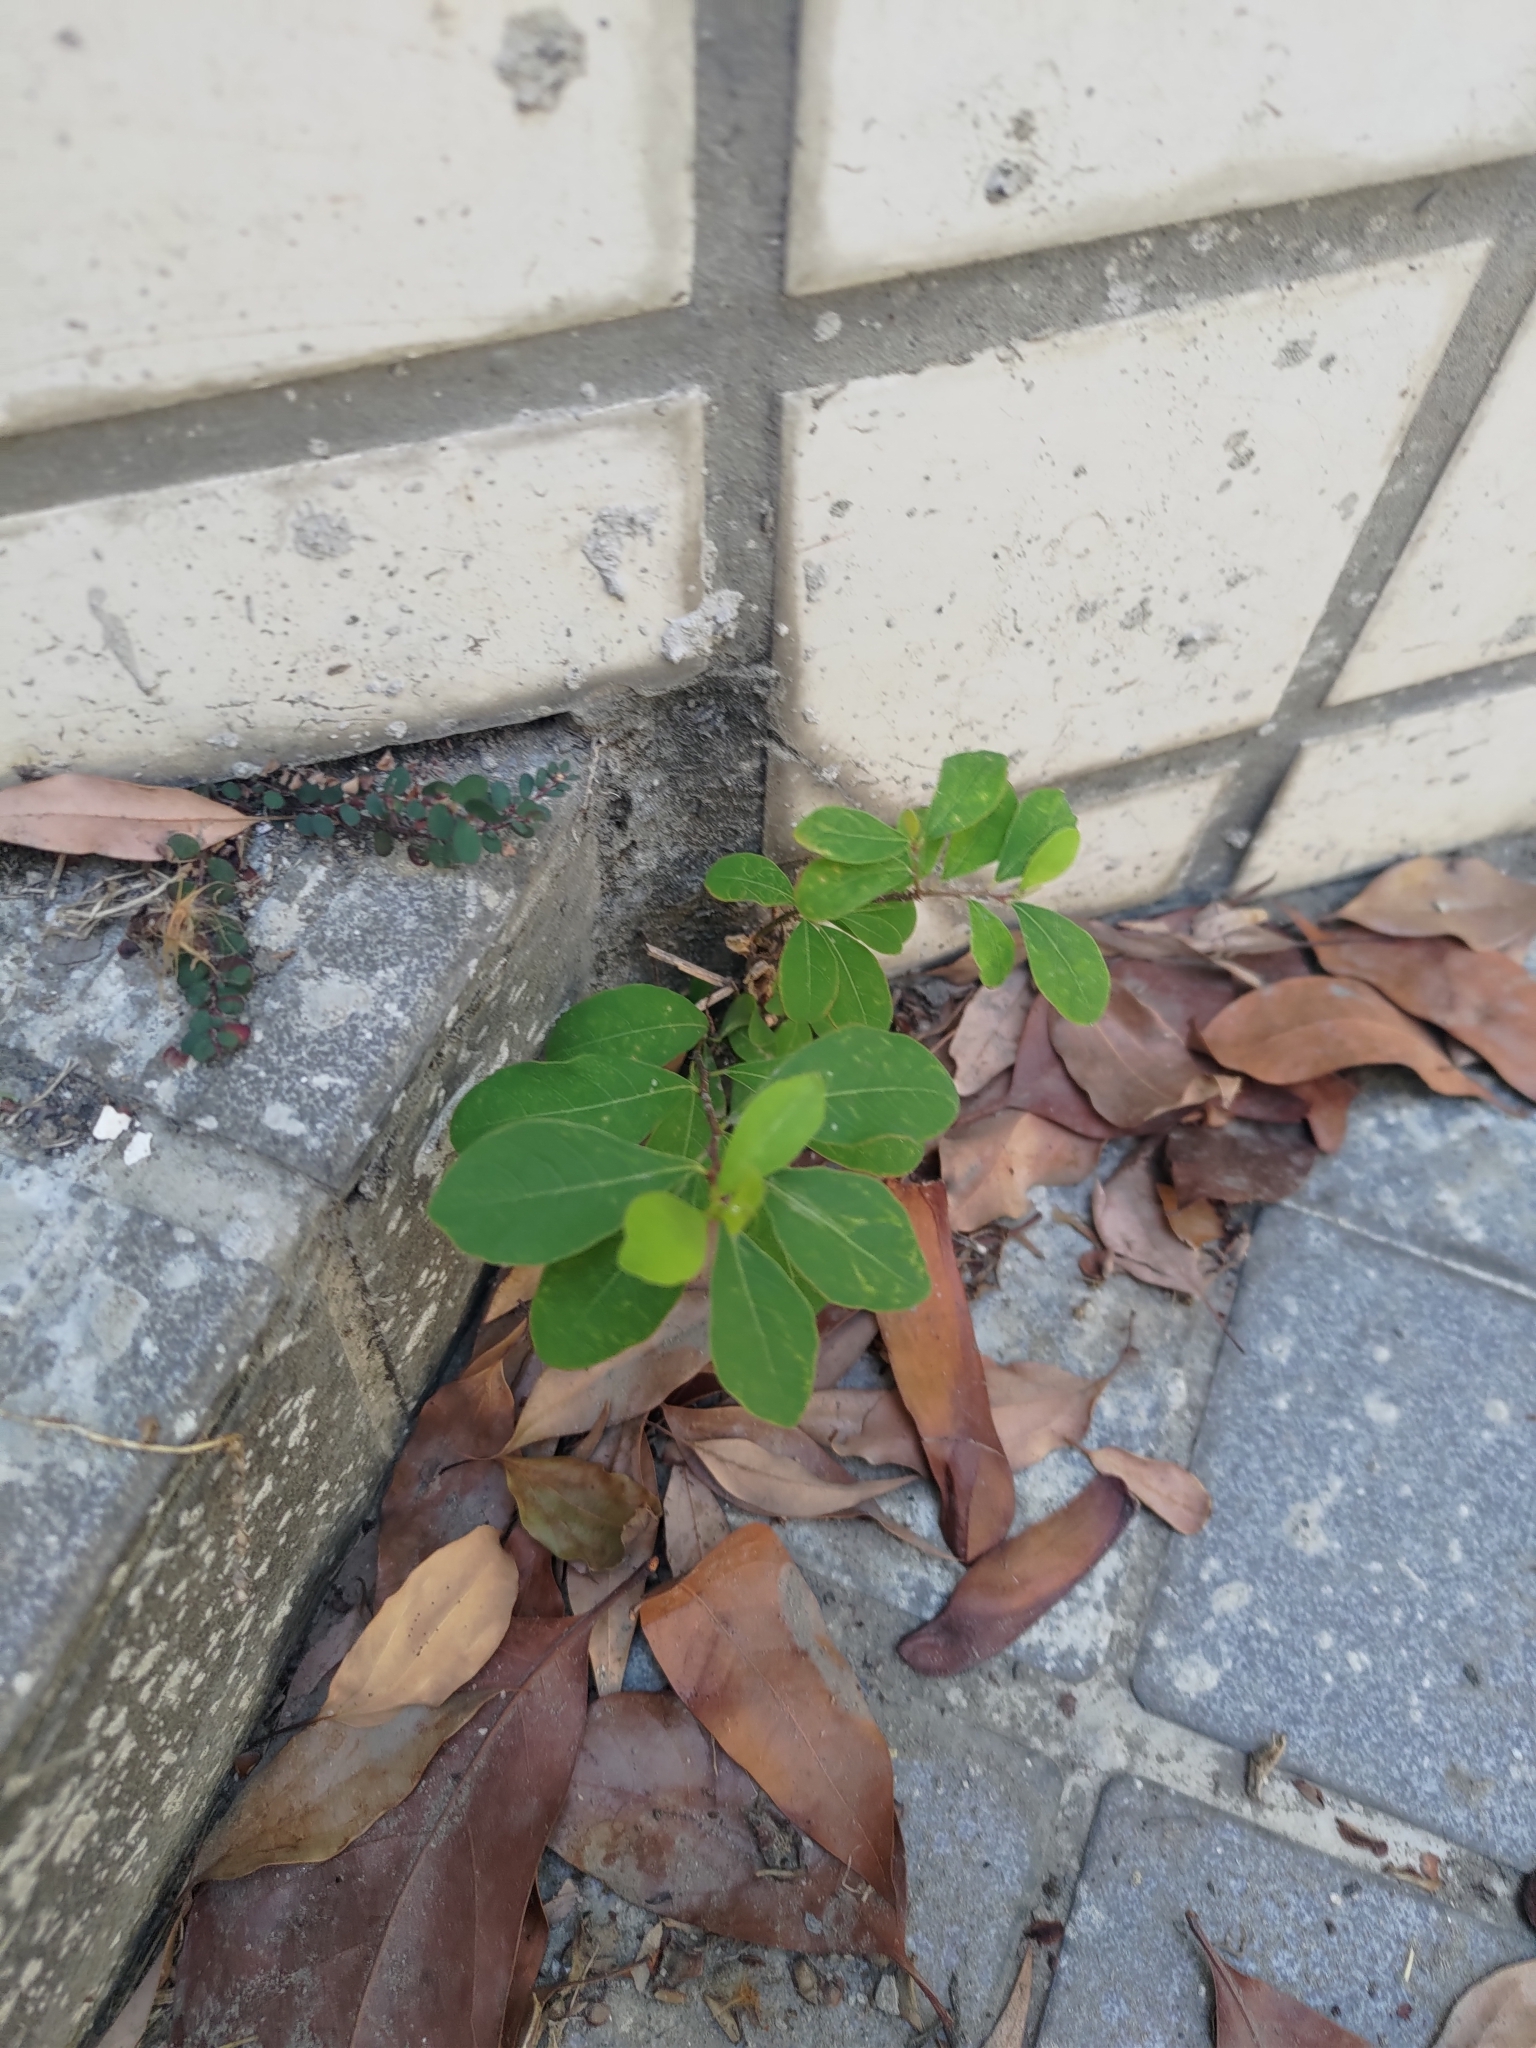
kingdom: Plantae
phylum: Tracheophyta
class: Magnoliopsida
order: Malpighiales
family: Phyllanthaceae
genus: Flueggea
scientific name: Flueggea virosa
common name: Common bushweed
